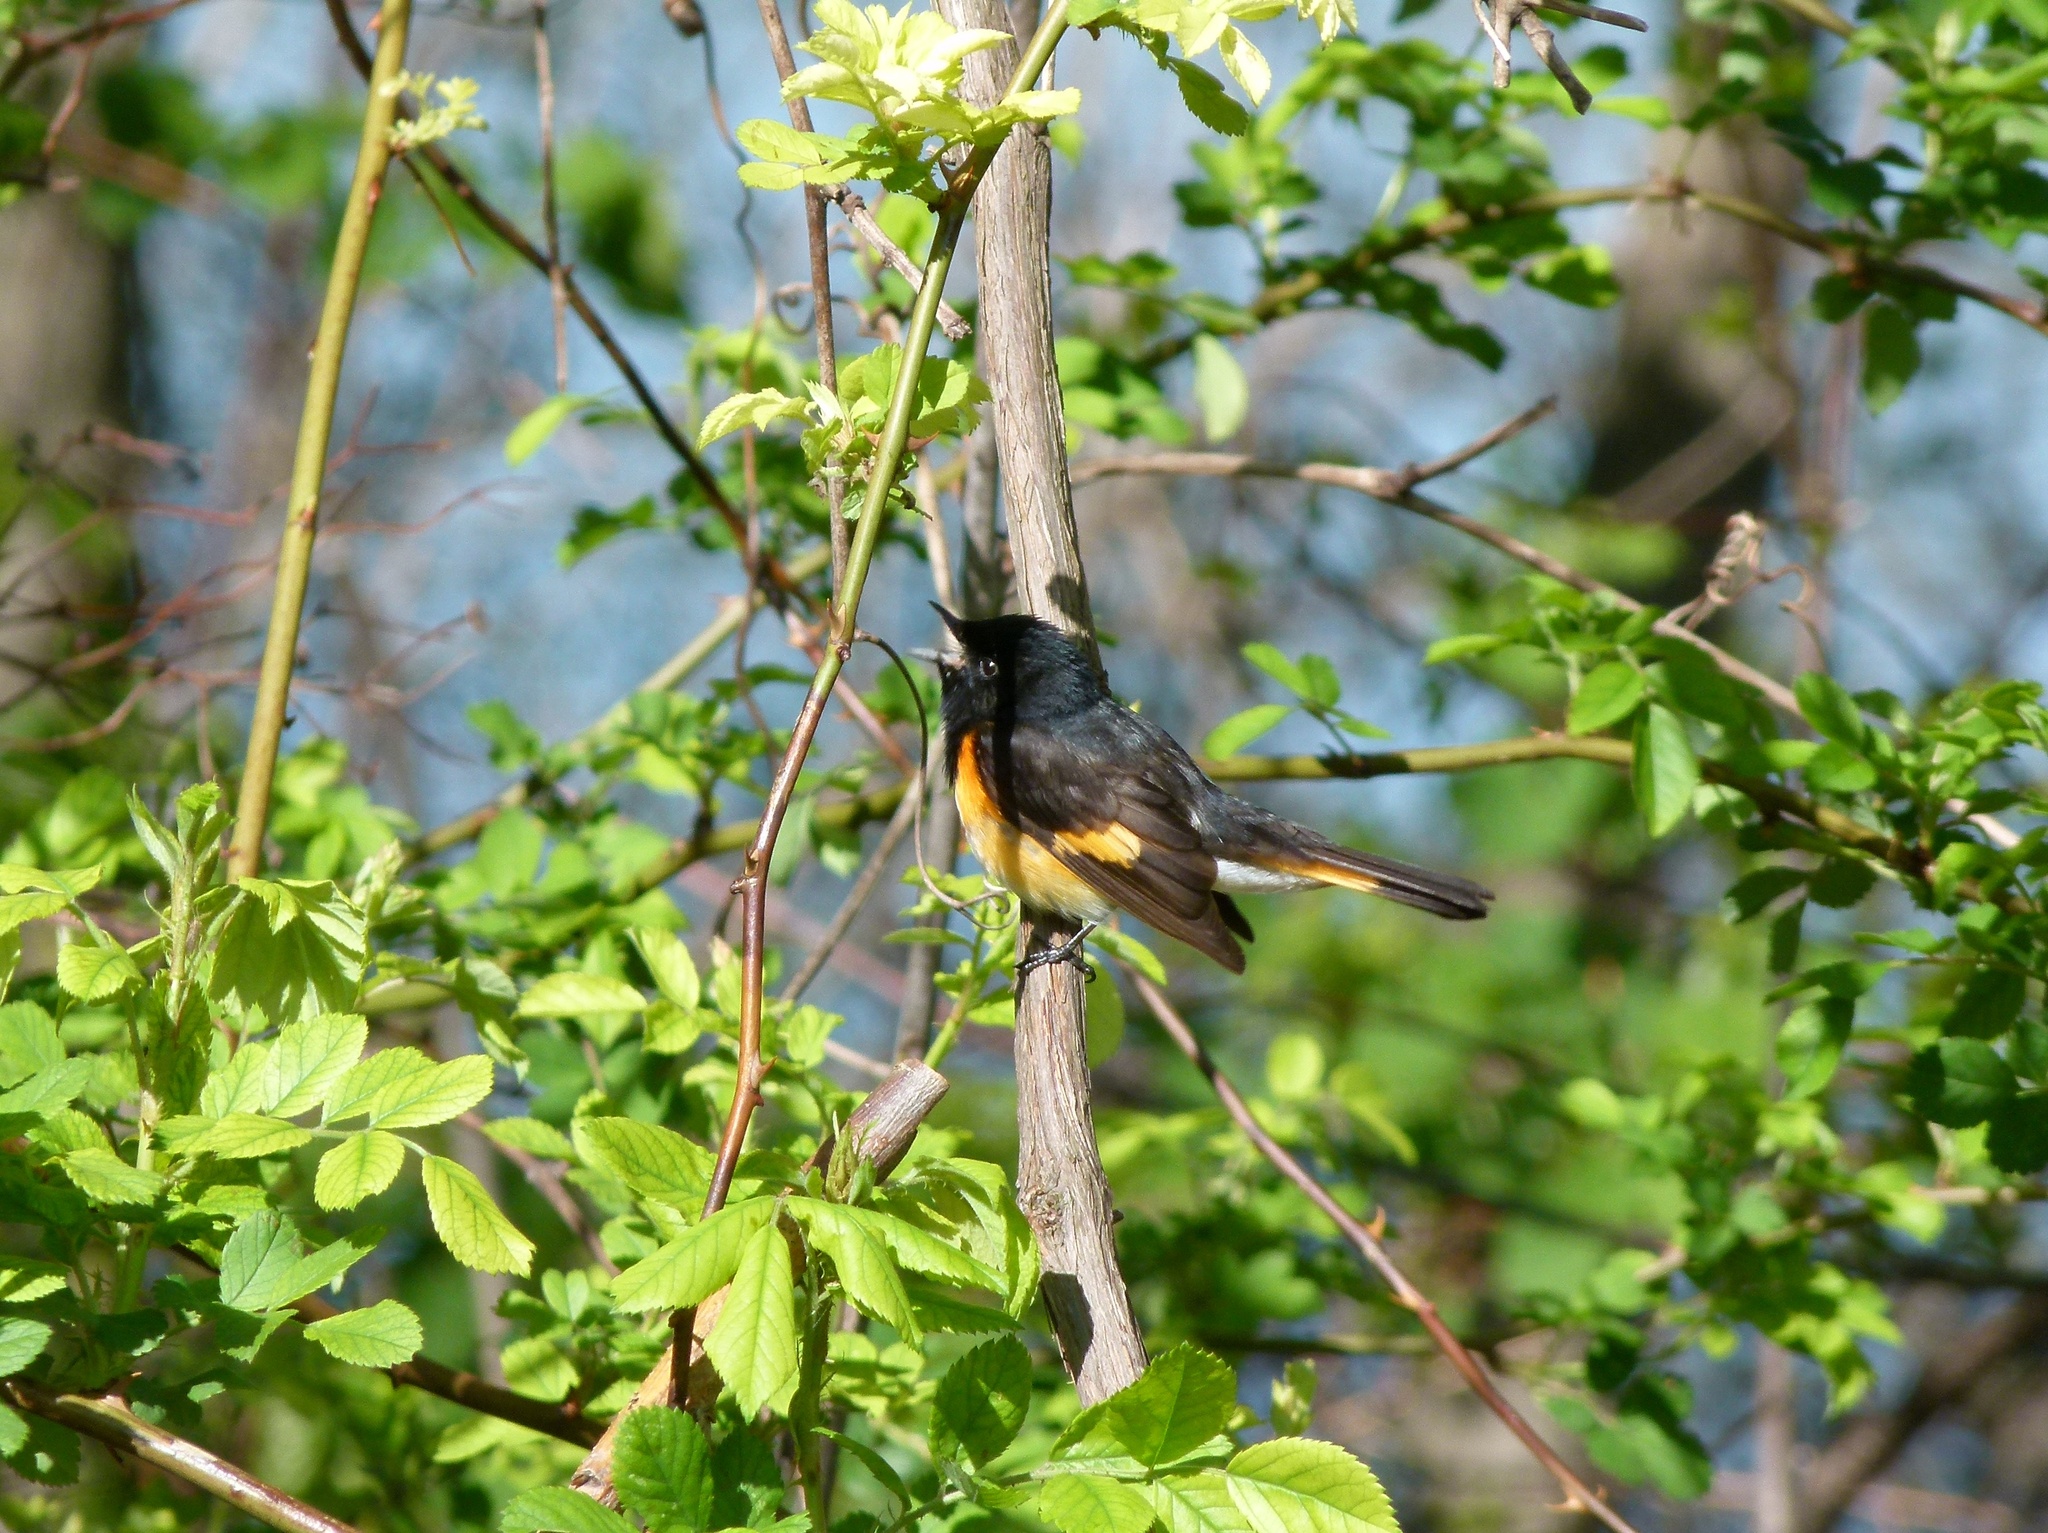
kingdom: Animalia
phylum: Chordata
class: Aves
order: Passeriformes
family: Parulidae
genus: Setophaga
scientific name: Setophaga ruticilla
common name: American redstart
